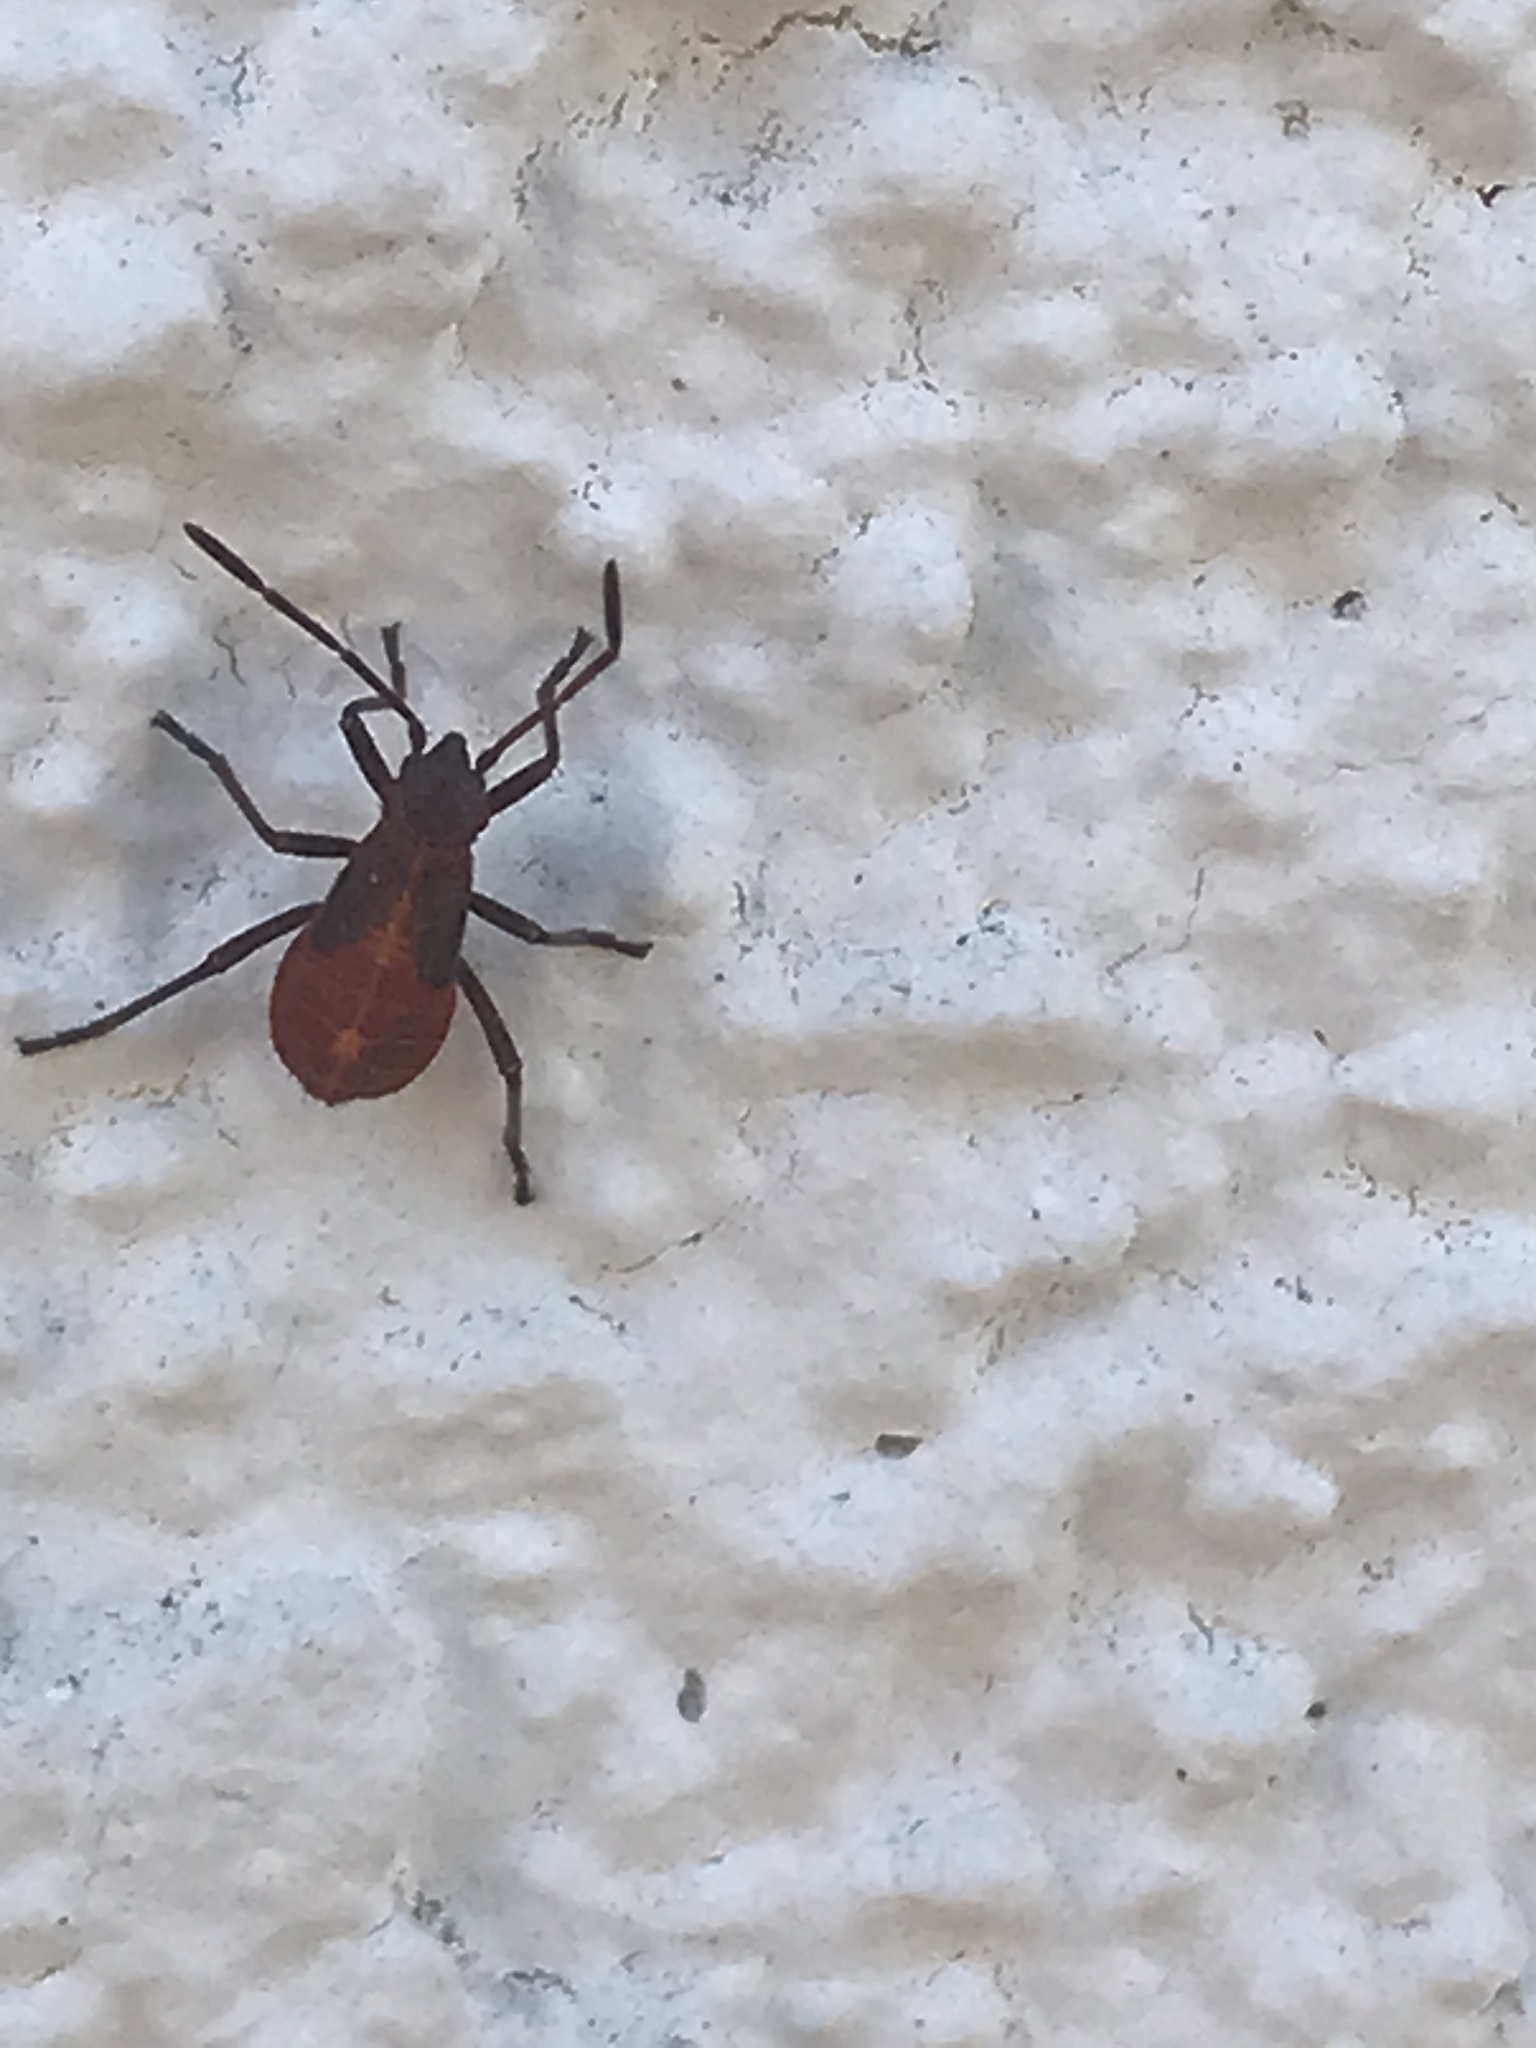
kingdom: Animalia
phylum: Arthropoda
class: Insecta
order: Hemiptera
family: Rhopalidae
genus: Boisea
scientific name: Boisea trivittata
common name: Boxelder bug
